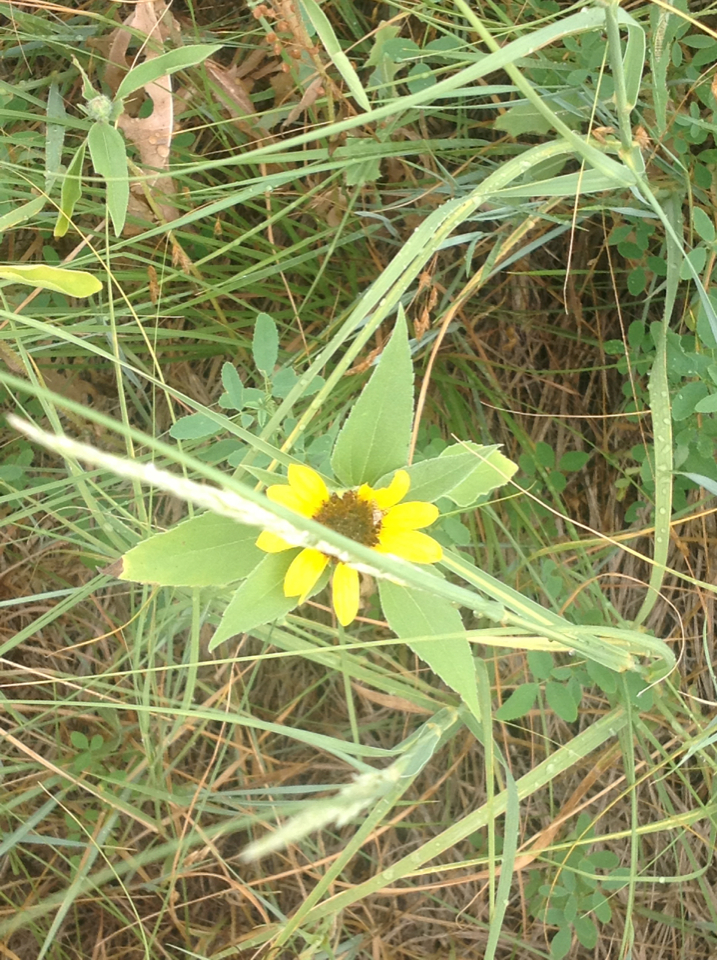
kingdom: Plantae
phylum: Tracheophyta
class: Magnoliopsida
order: Asterales
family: Asteraceae
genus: Helianthus
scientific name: Helianthus annuus
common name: Sunflower
